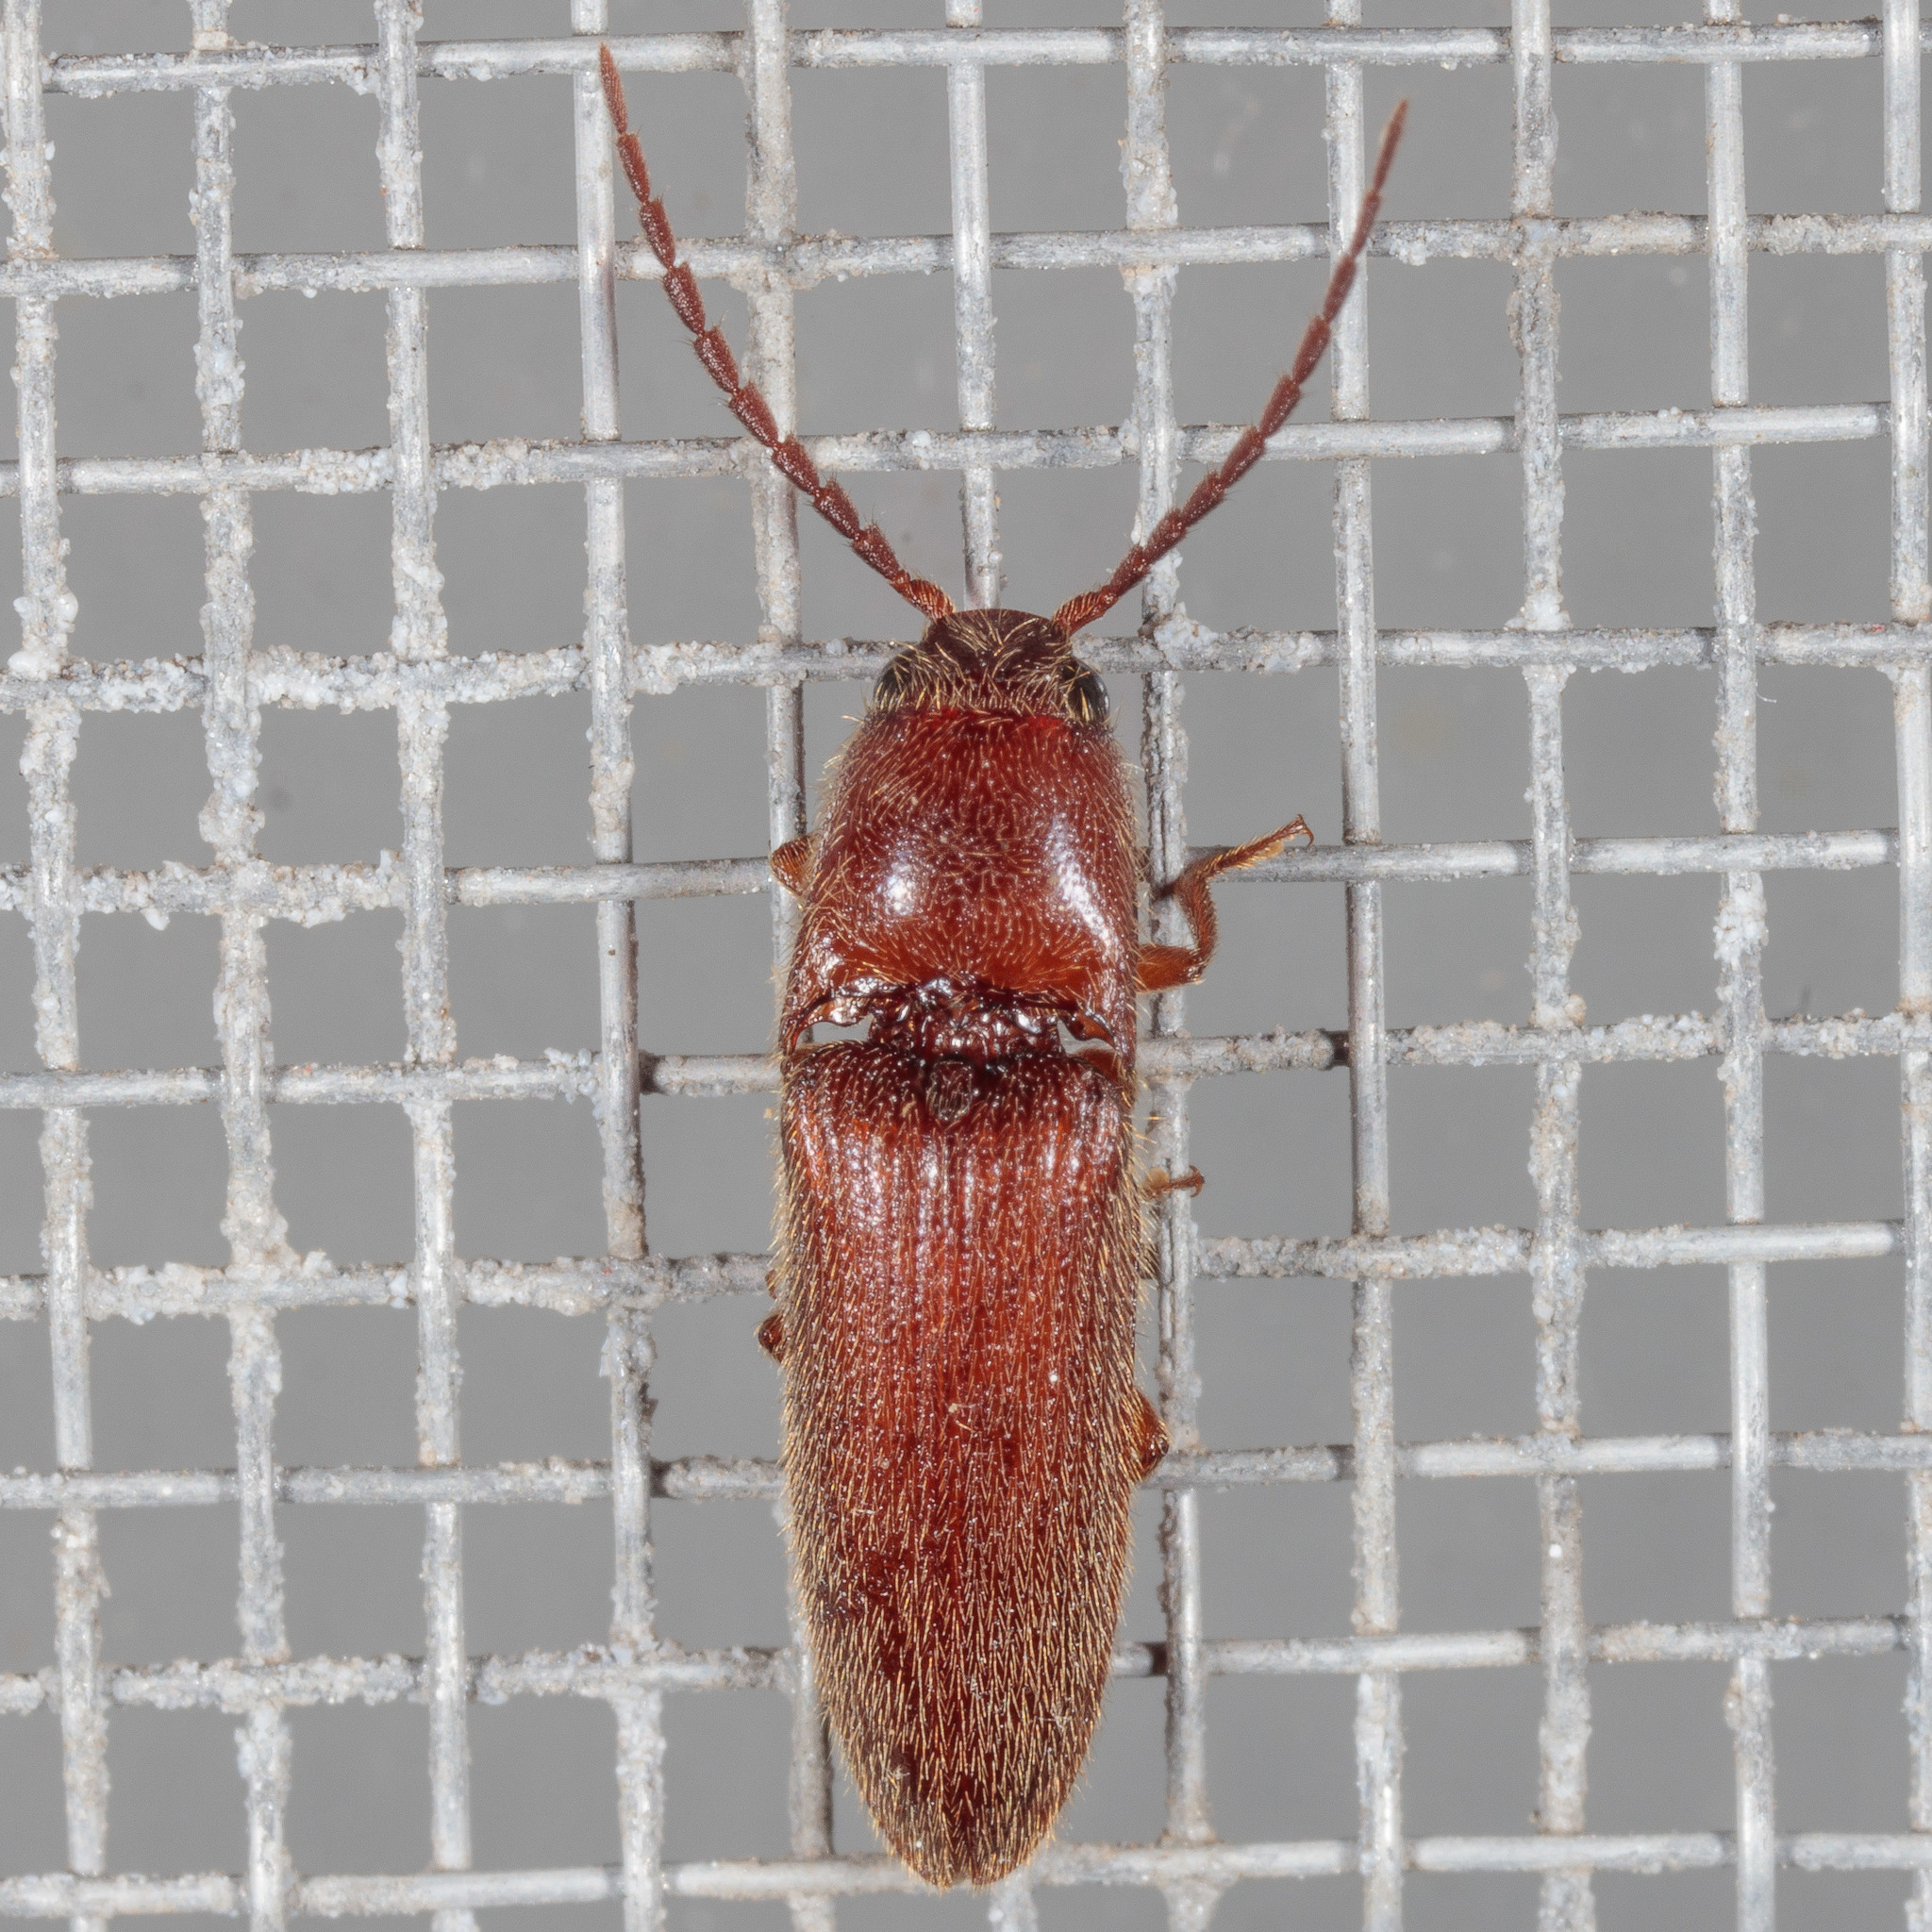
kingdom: Animalia
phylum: Arthropoda
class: Insecta
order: Coleoptera
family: Elateridae
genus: Dipropus
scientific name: Dipropus
